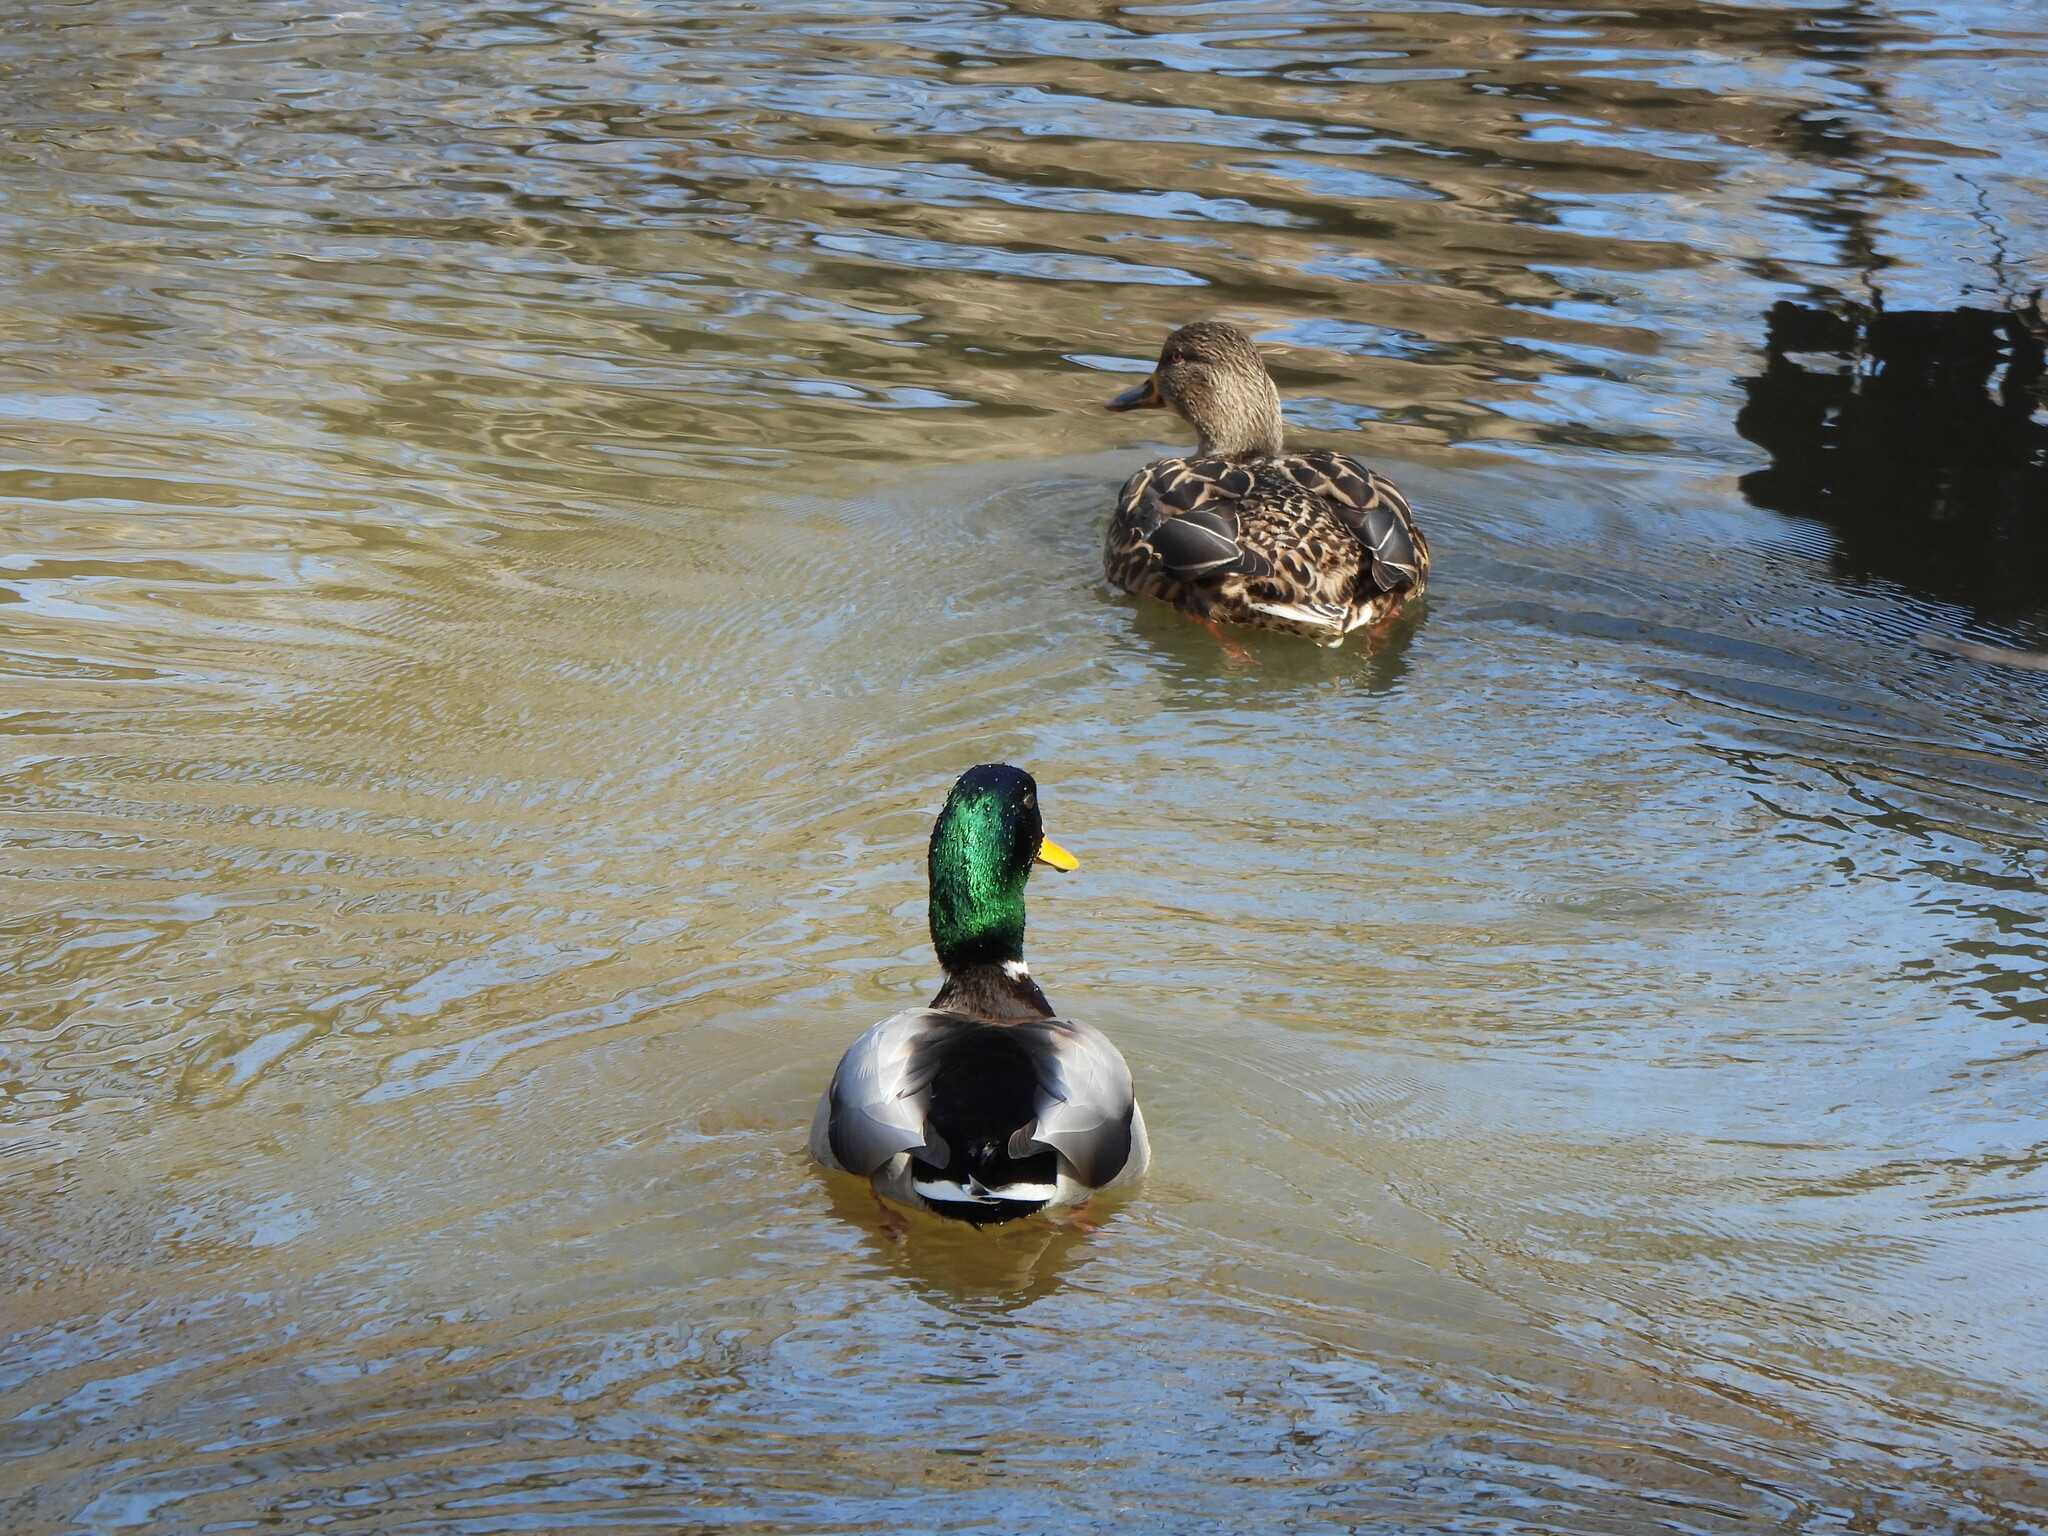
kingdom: Animalia
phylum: Chordata
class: Aves
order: Anseriformes
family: Anatidae
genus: Anas
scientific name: Anas platyrhynchos
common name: Mallard
